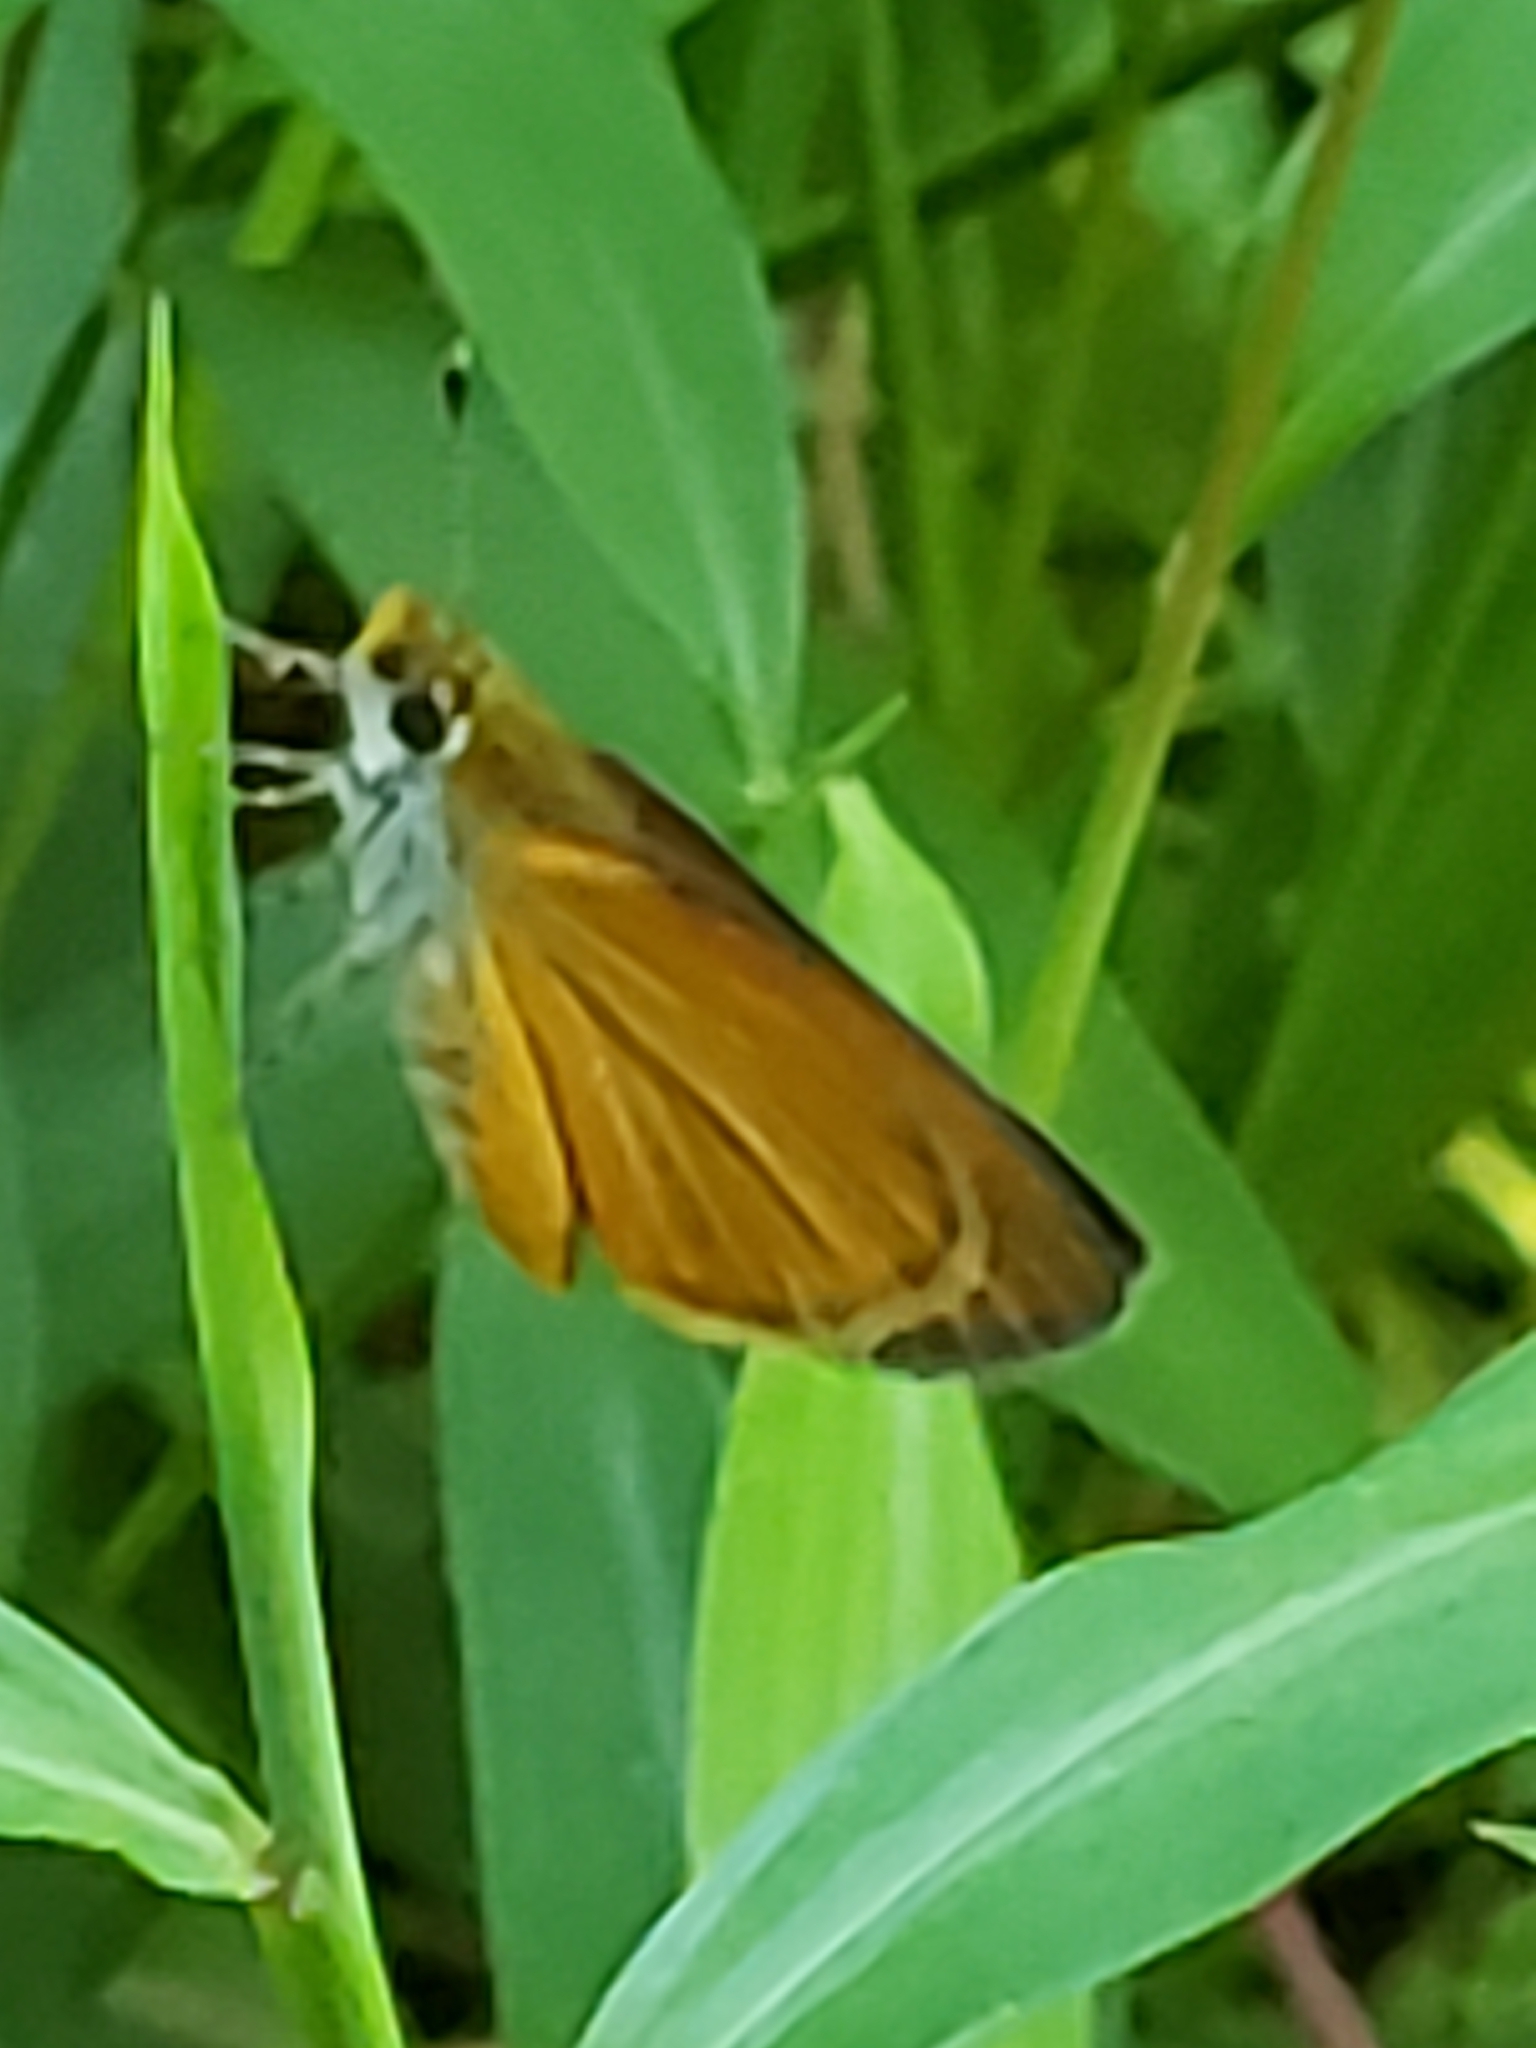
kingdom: Animalia
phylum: Arthropoda
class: Insecta
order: Lepidoptera
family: Hesperiidae
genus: Ancyloxypha
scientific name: Ancyloxypha numitor
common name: Least skipper
